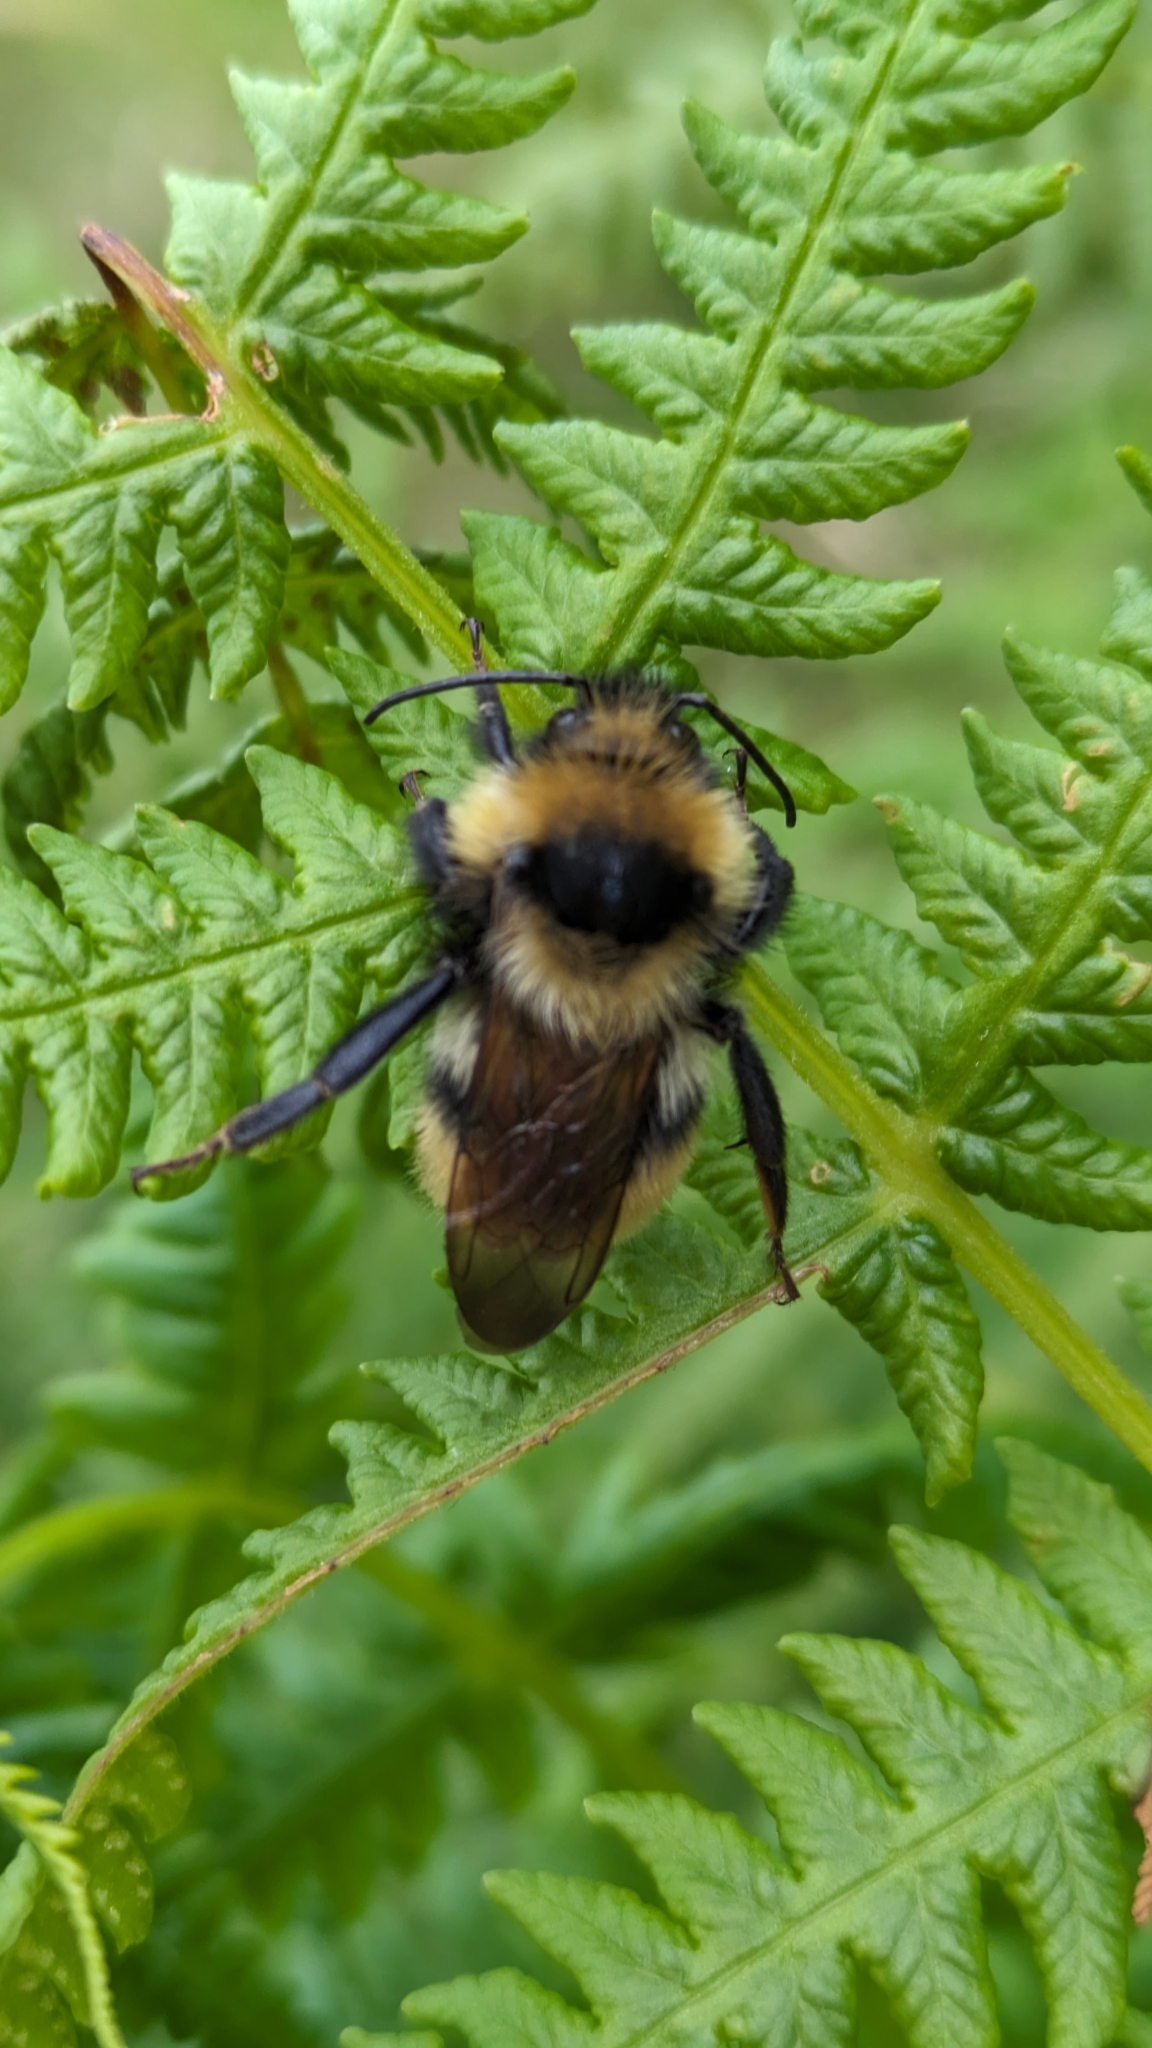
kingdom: Animalia
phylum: Arthropoda
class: Insecta
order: Hymenoptera
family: Apidae
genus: Bombus
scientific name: Bombus campestris
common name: Field cuckoo-bee
